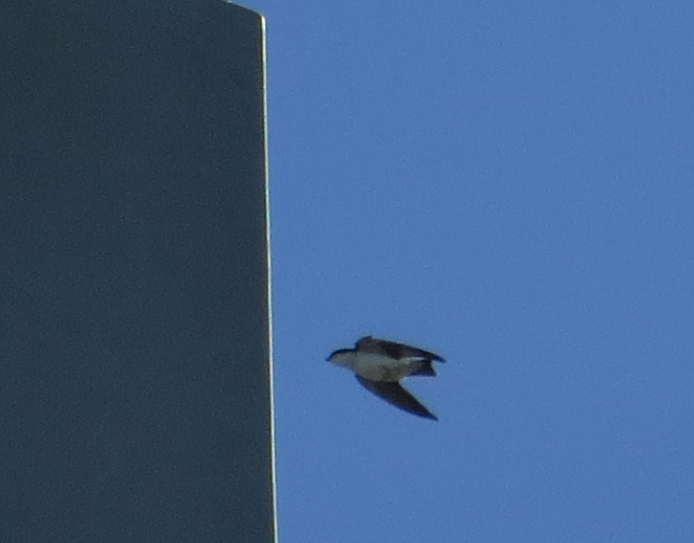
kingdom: Animalia
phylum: Chordata
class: Aves
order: Passeriformes
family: Hirundinidae
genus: Tachycineta
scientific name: Tachycineta
